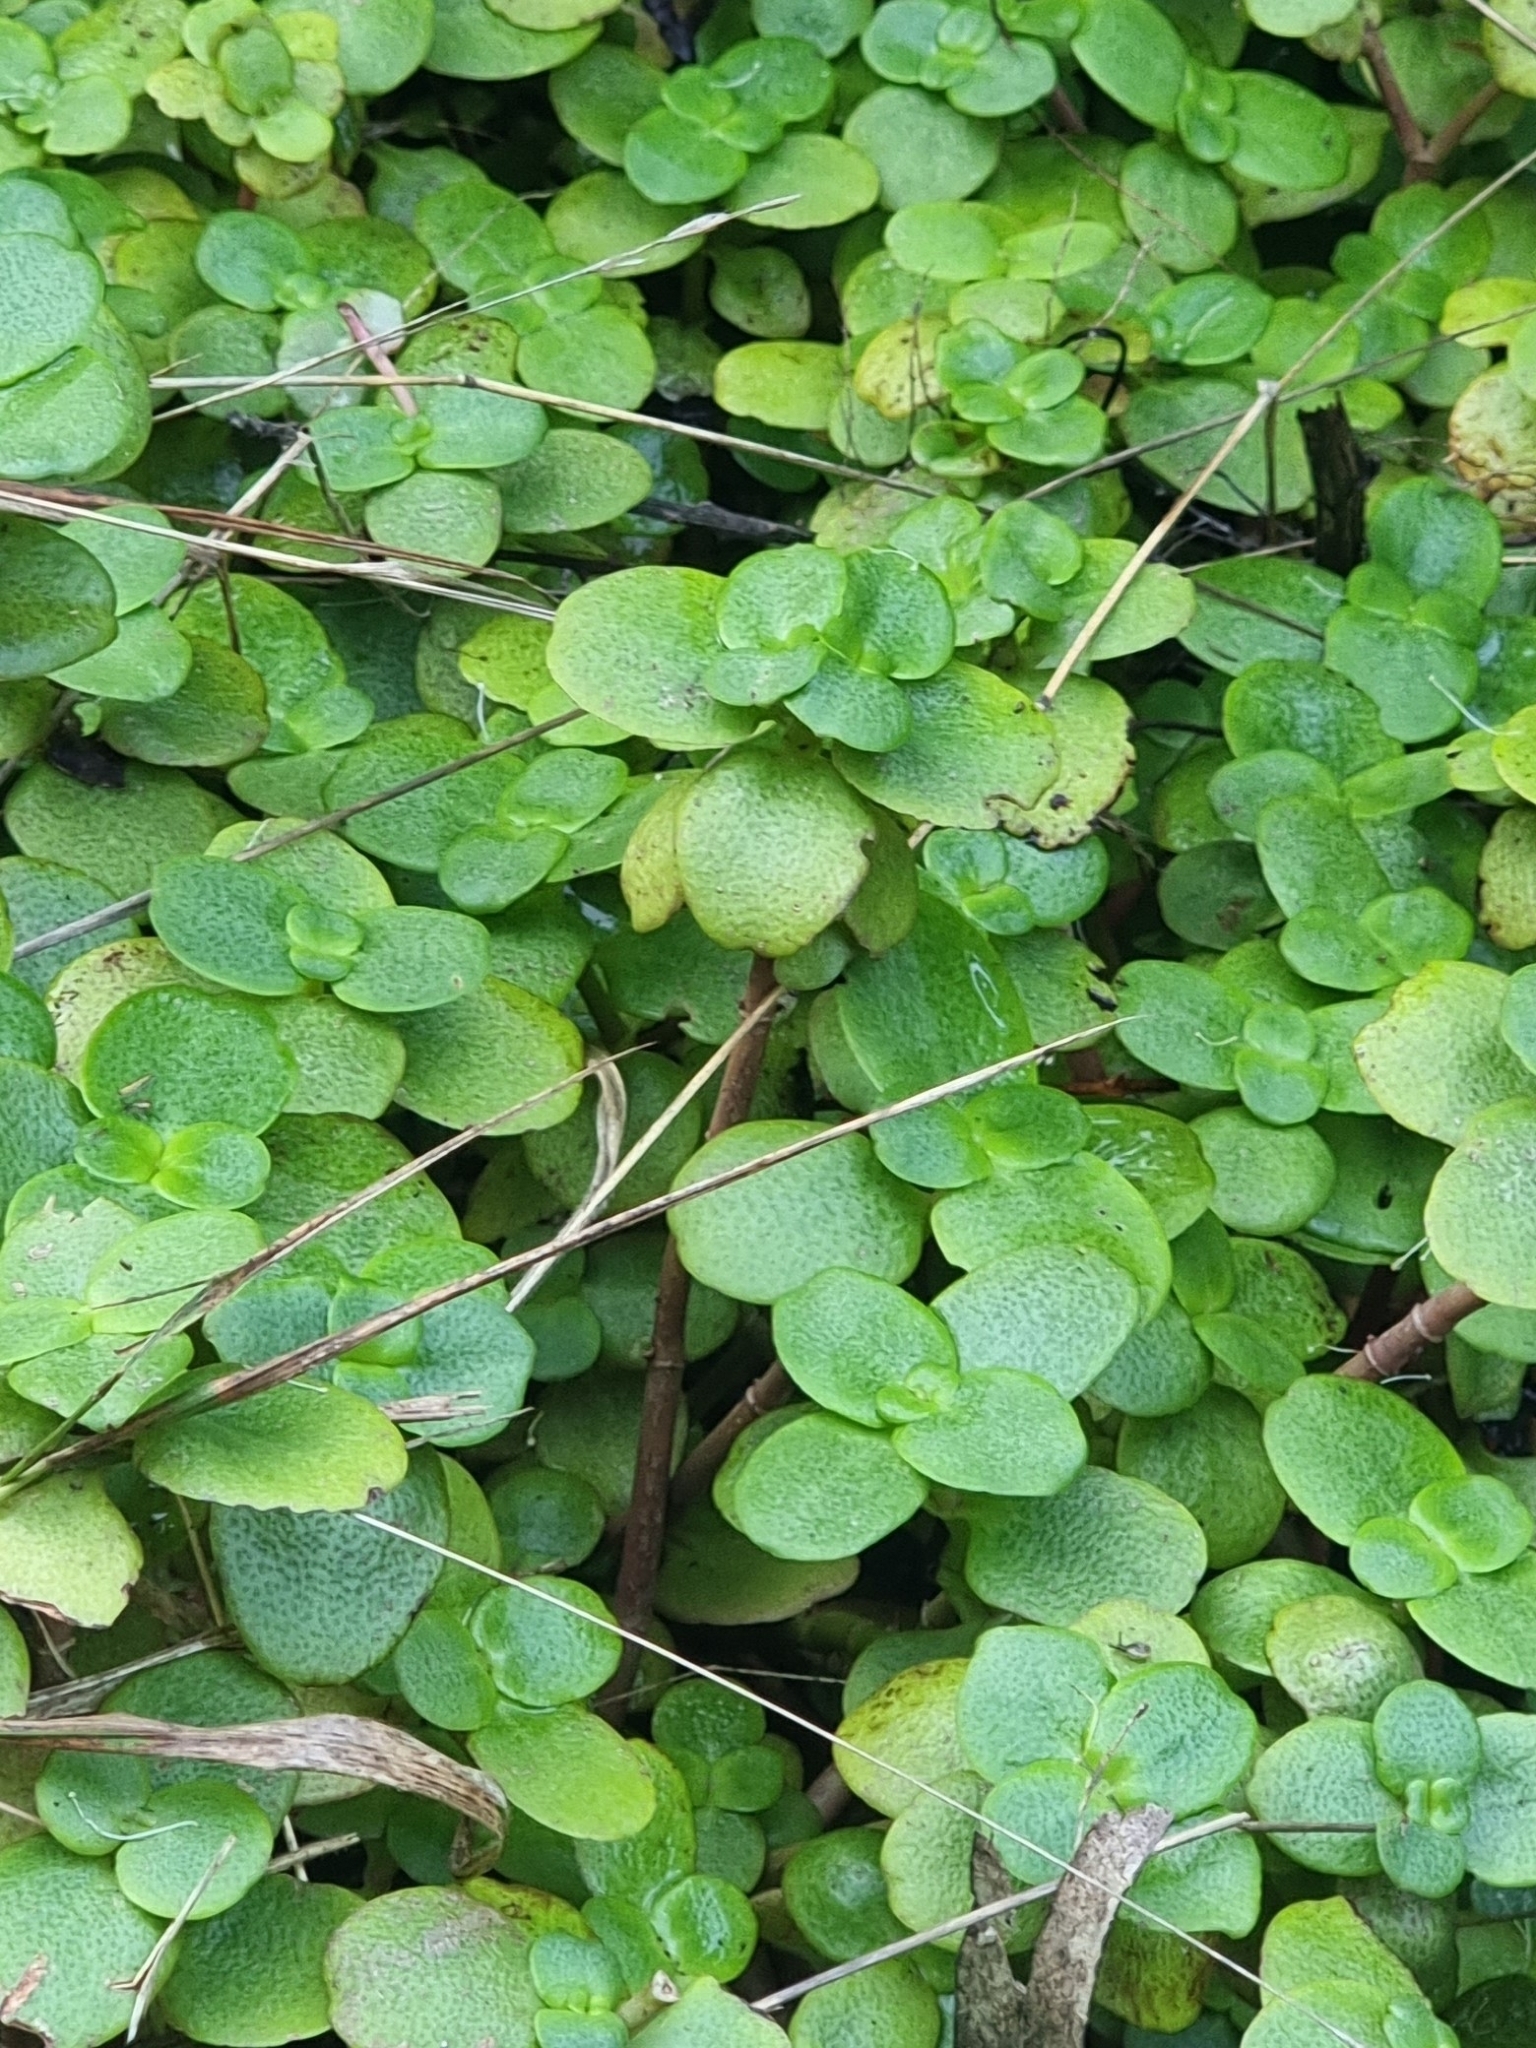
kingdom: Plantae
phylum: Tracheophyta
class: Magnoliopsida
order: Saxifragales
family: Crassulaceae
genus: Crassula
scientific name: Crassula multicava
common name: Cape province pygmyweed
